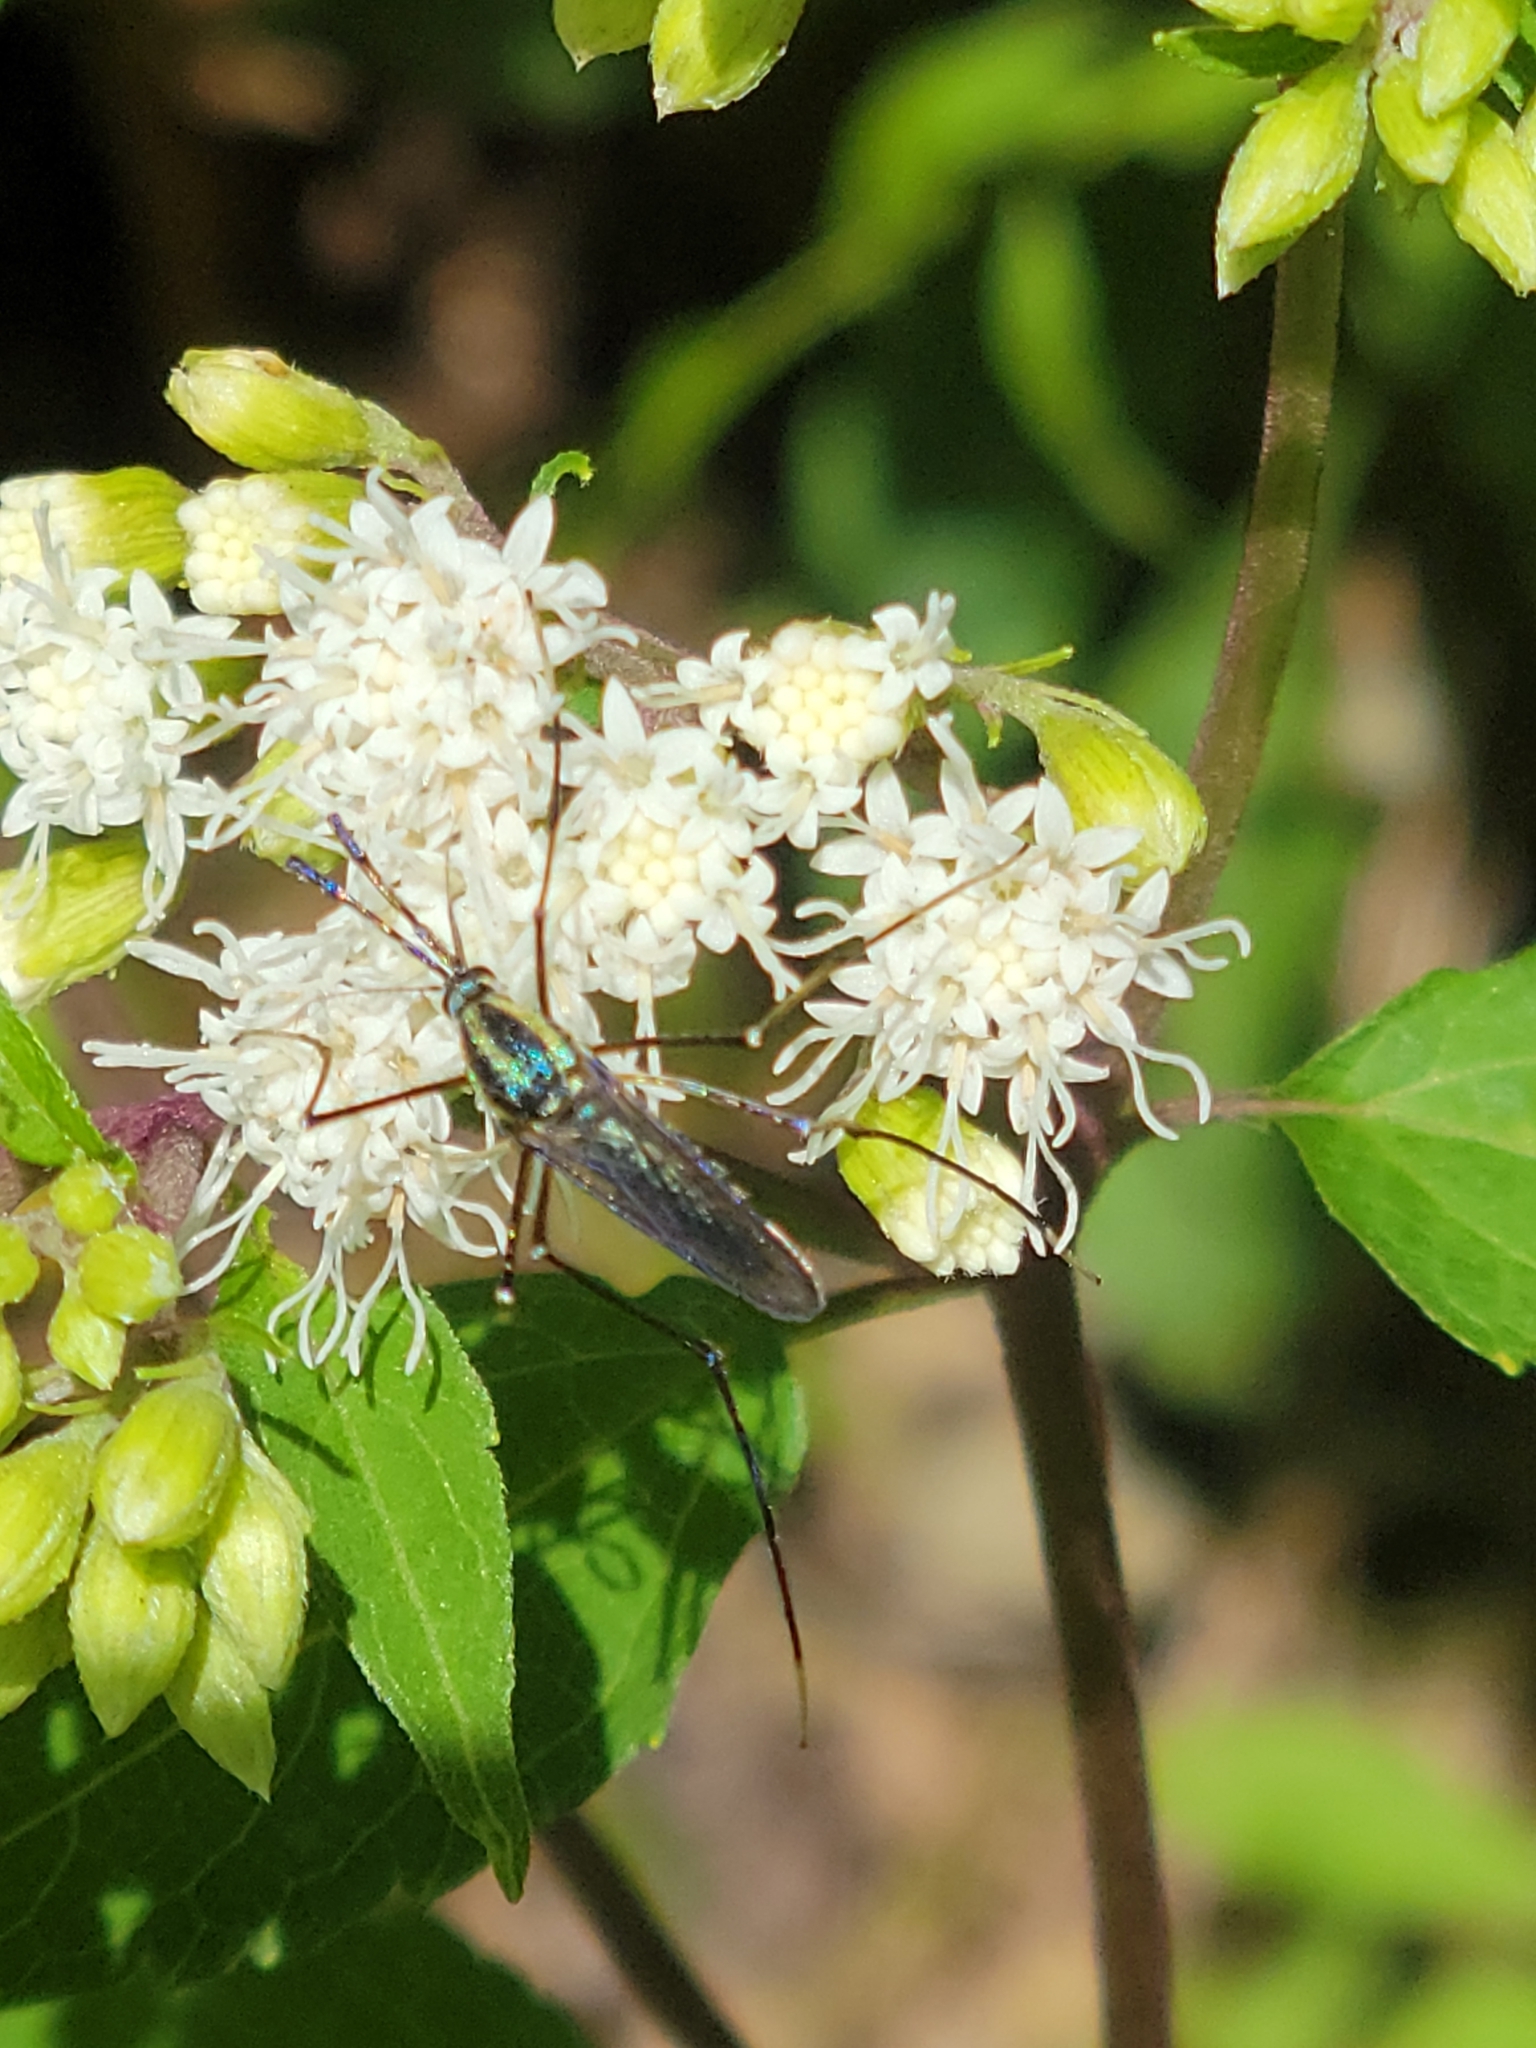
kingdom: Animalia
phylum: Arthropoda
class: Insecta
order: Diptera
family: Culicidae
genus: Toxorhynchites
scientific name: Toxorhynchites rutilus
